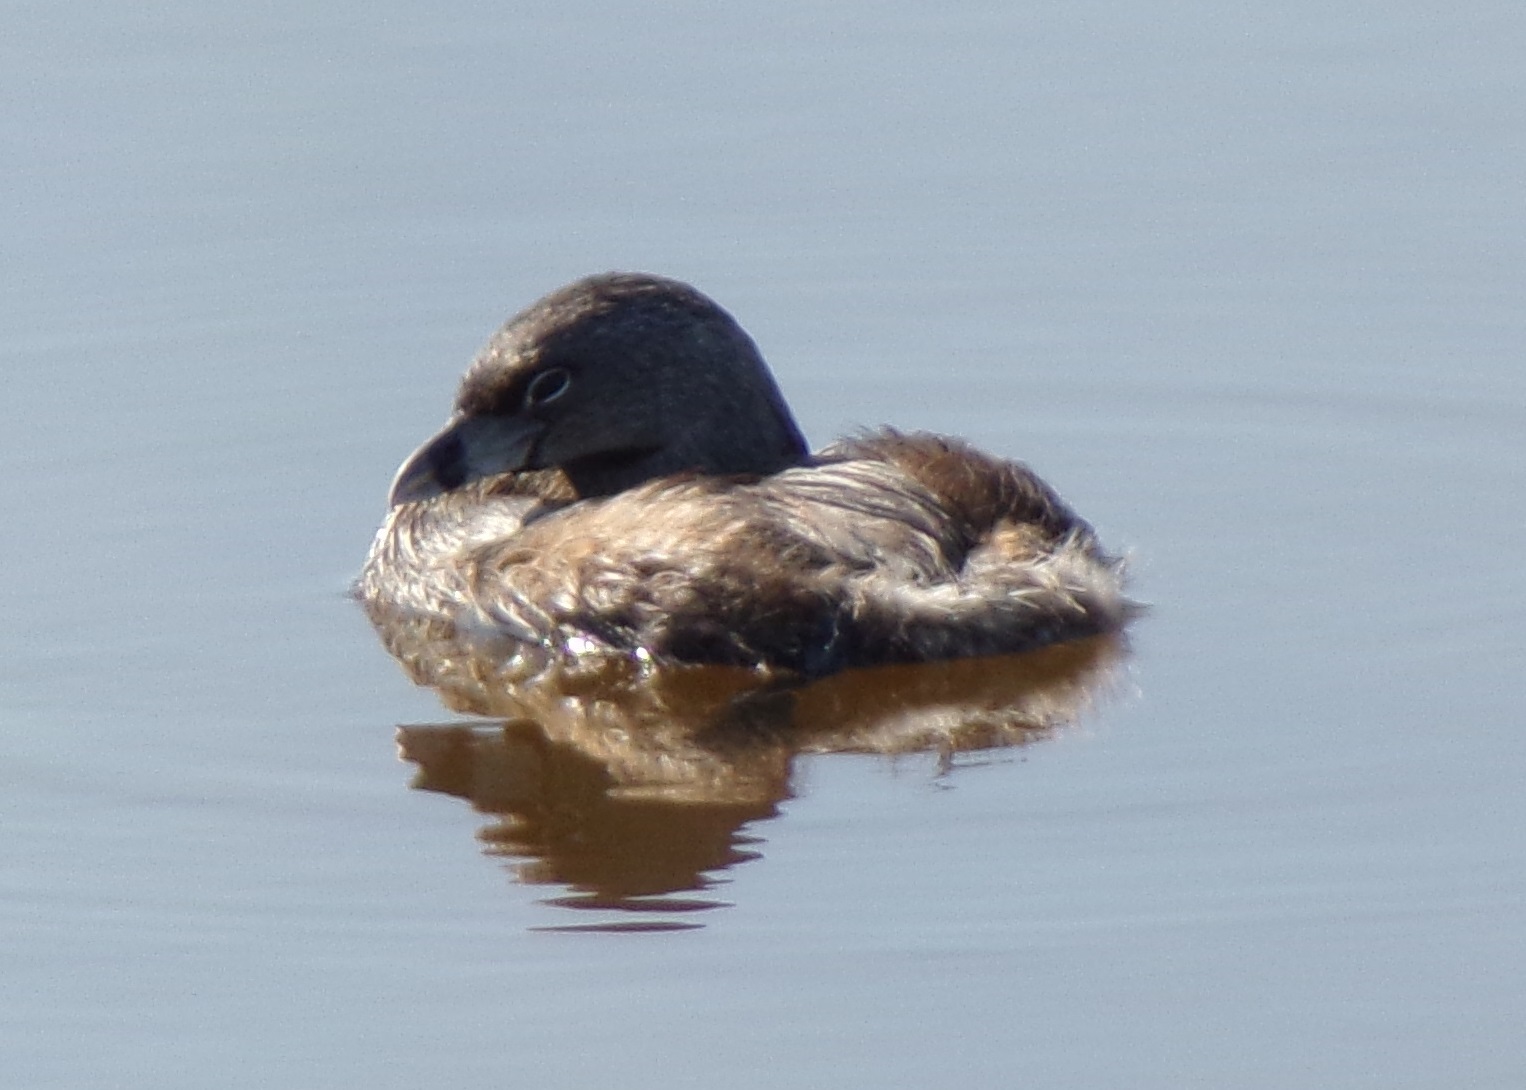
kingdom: Animalia
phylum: Chordata
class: Aves
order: Podicipediformes
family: Podicipedidae
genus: Podilymbus
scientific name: Podilymbus podiceps
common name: Pied-billed grebe
